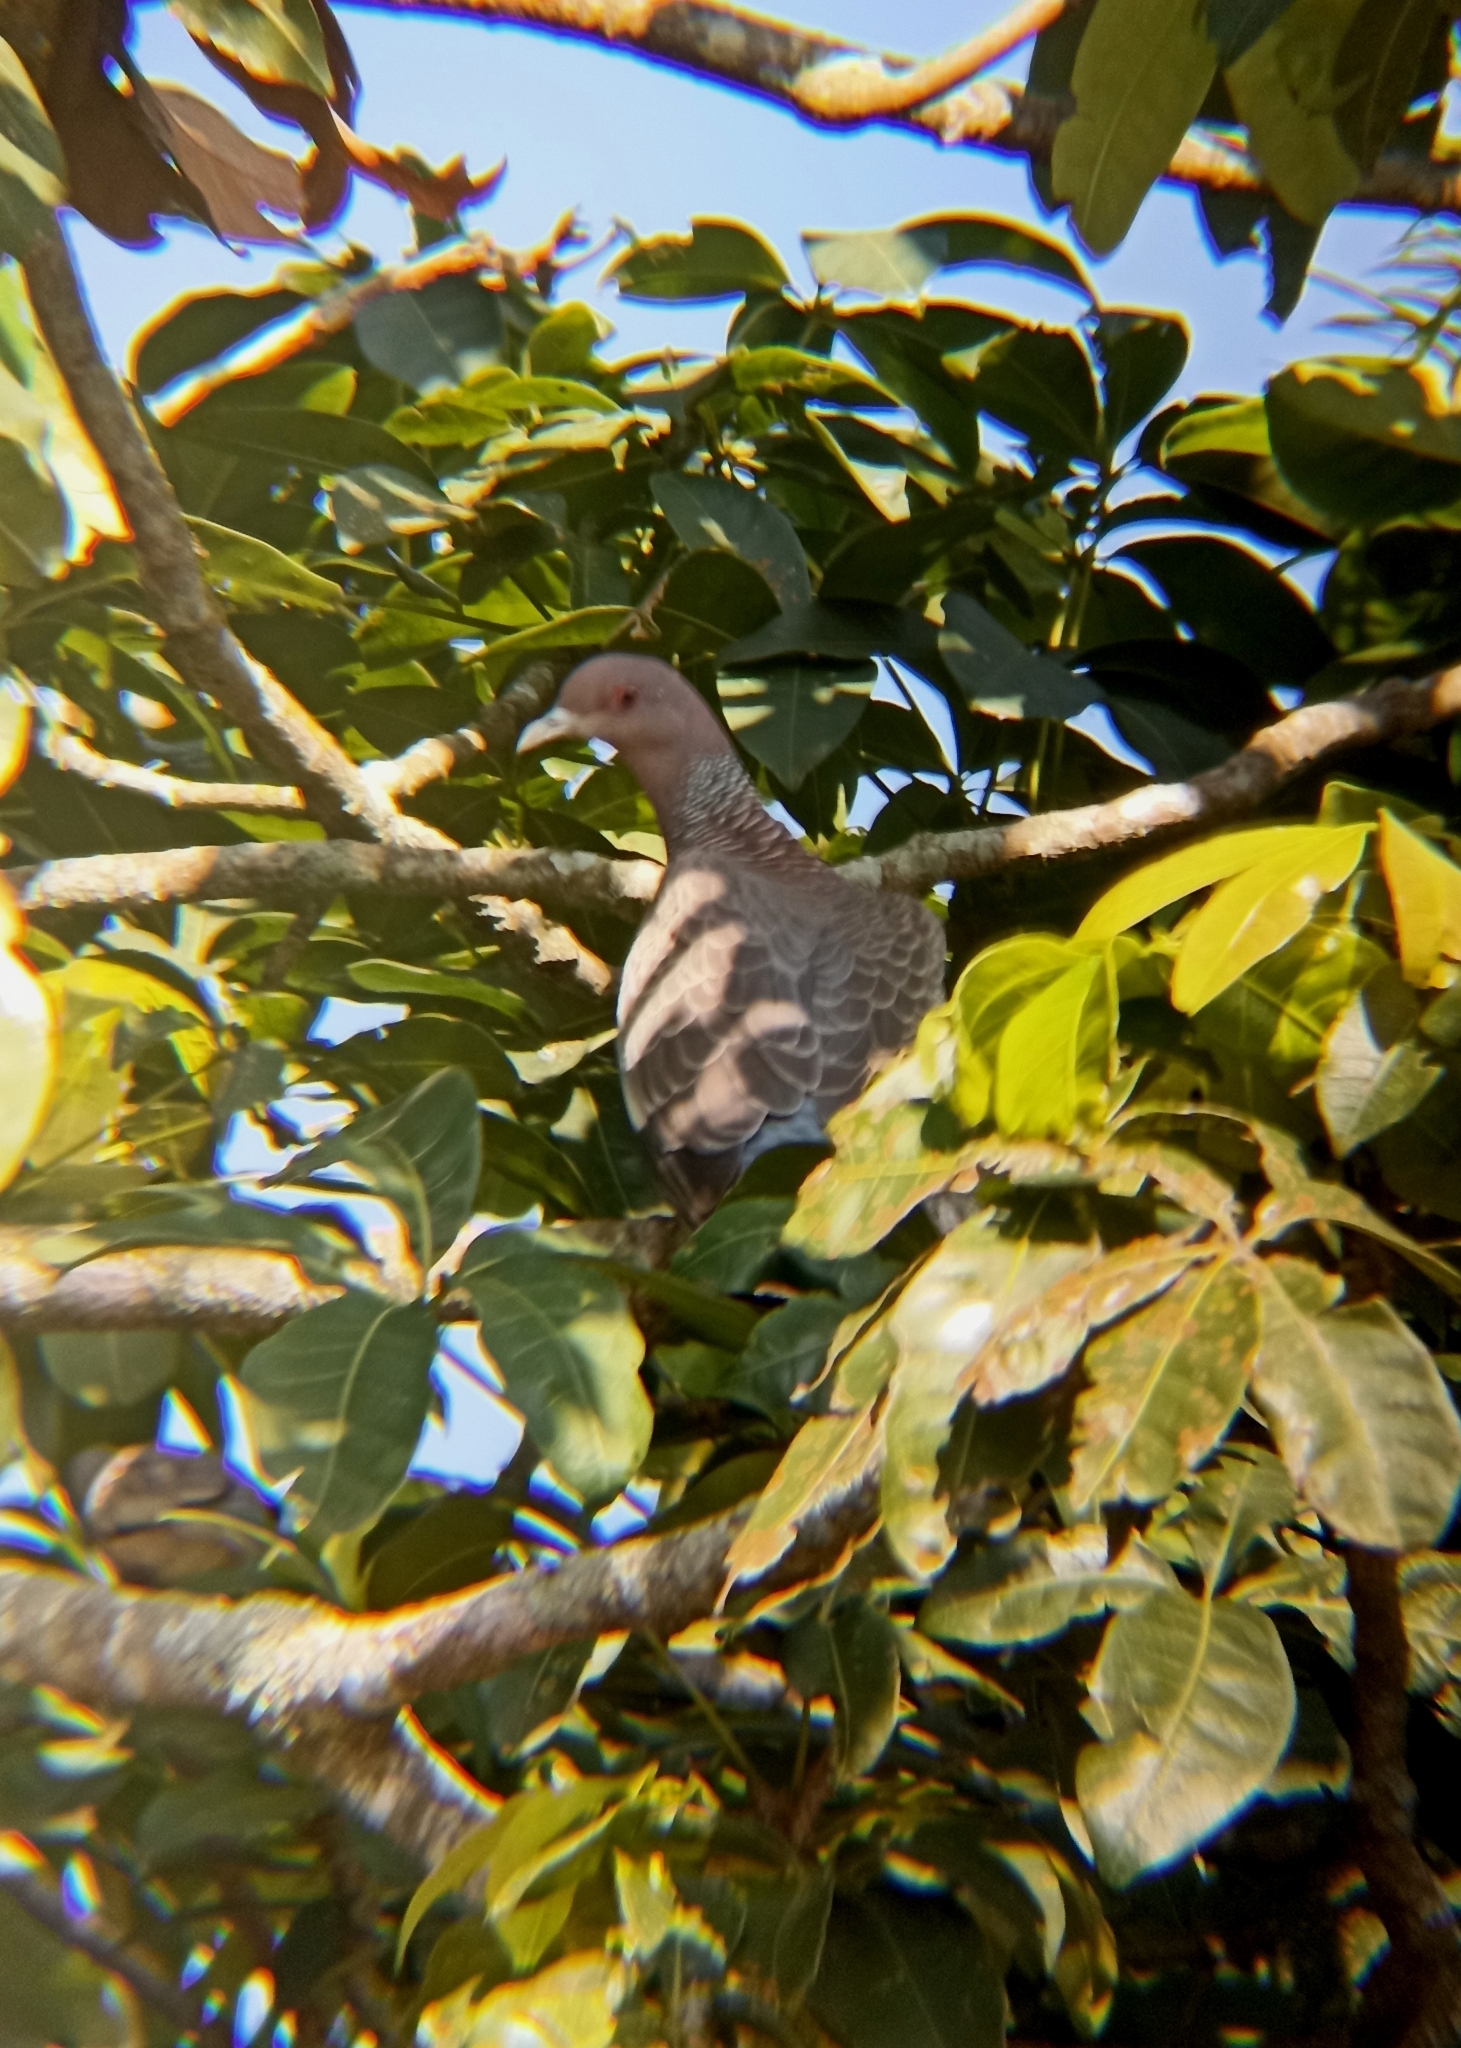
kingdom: Animalia
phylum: Chordata
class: Aves
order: Columbiformes
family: Columbidae
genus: Patagioenas
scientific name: Patagioenas picazuro
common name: Picazuro pigeon
